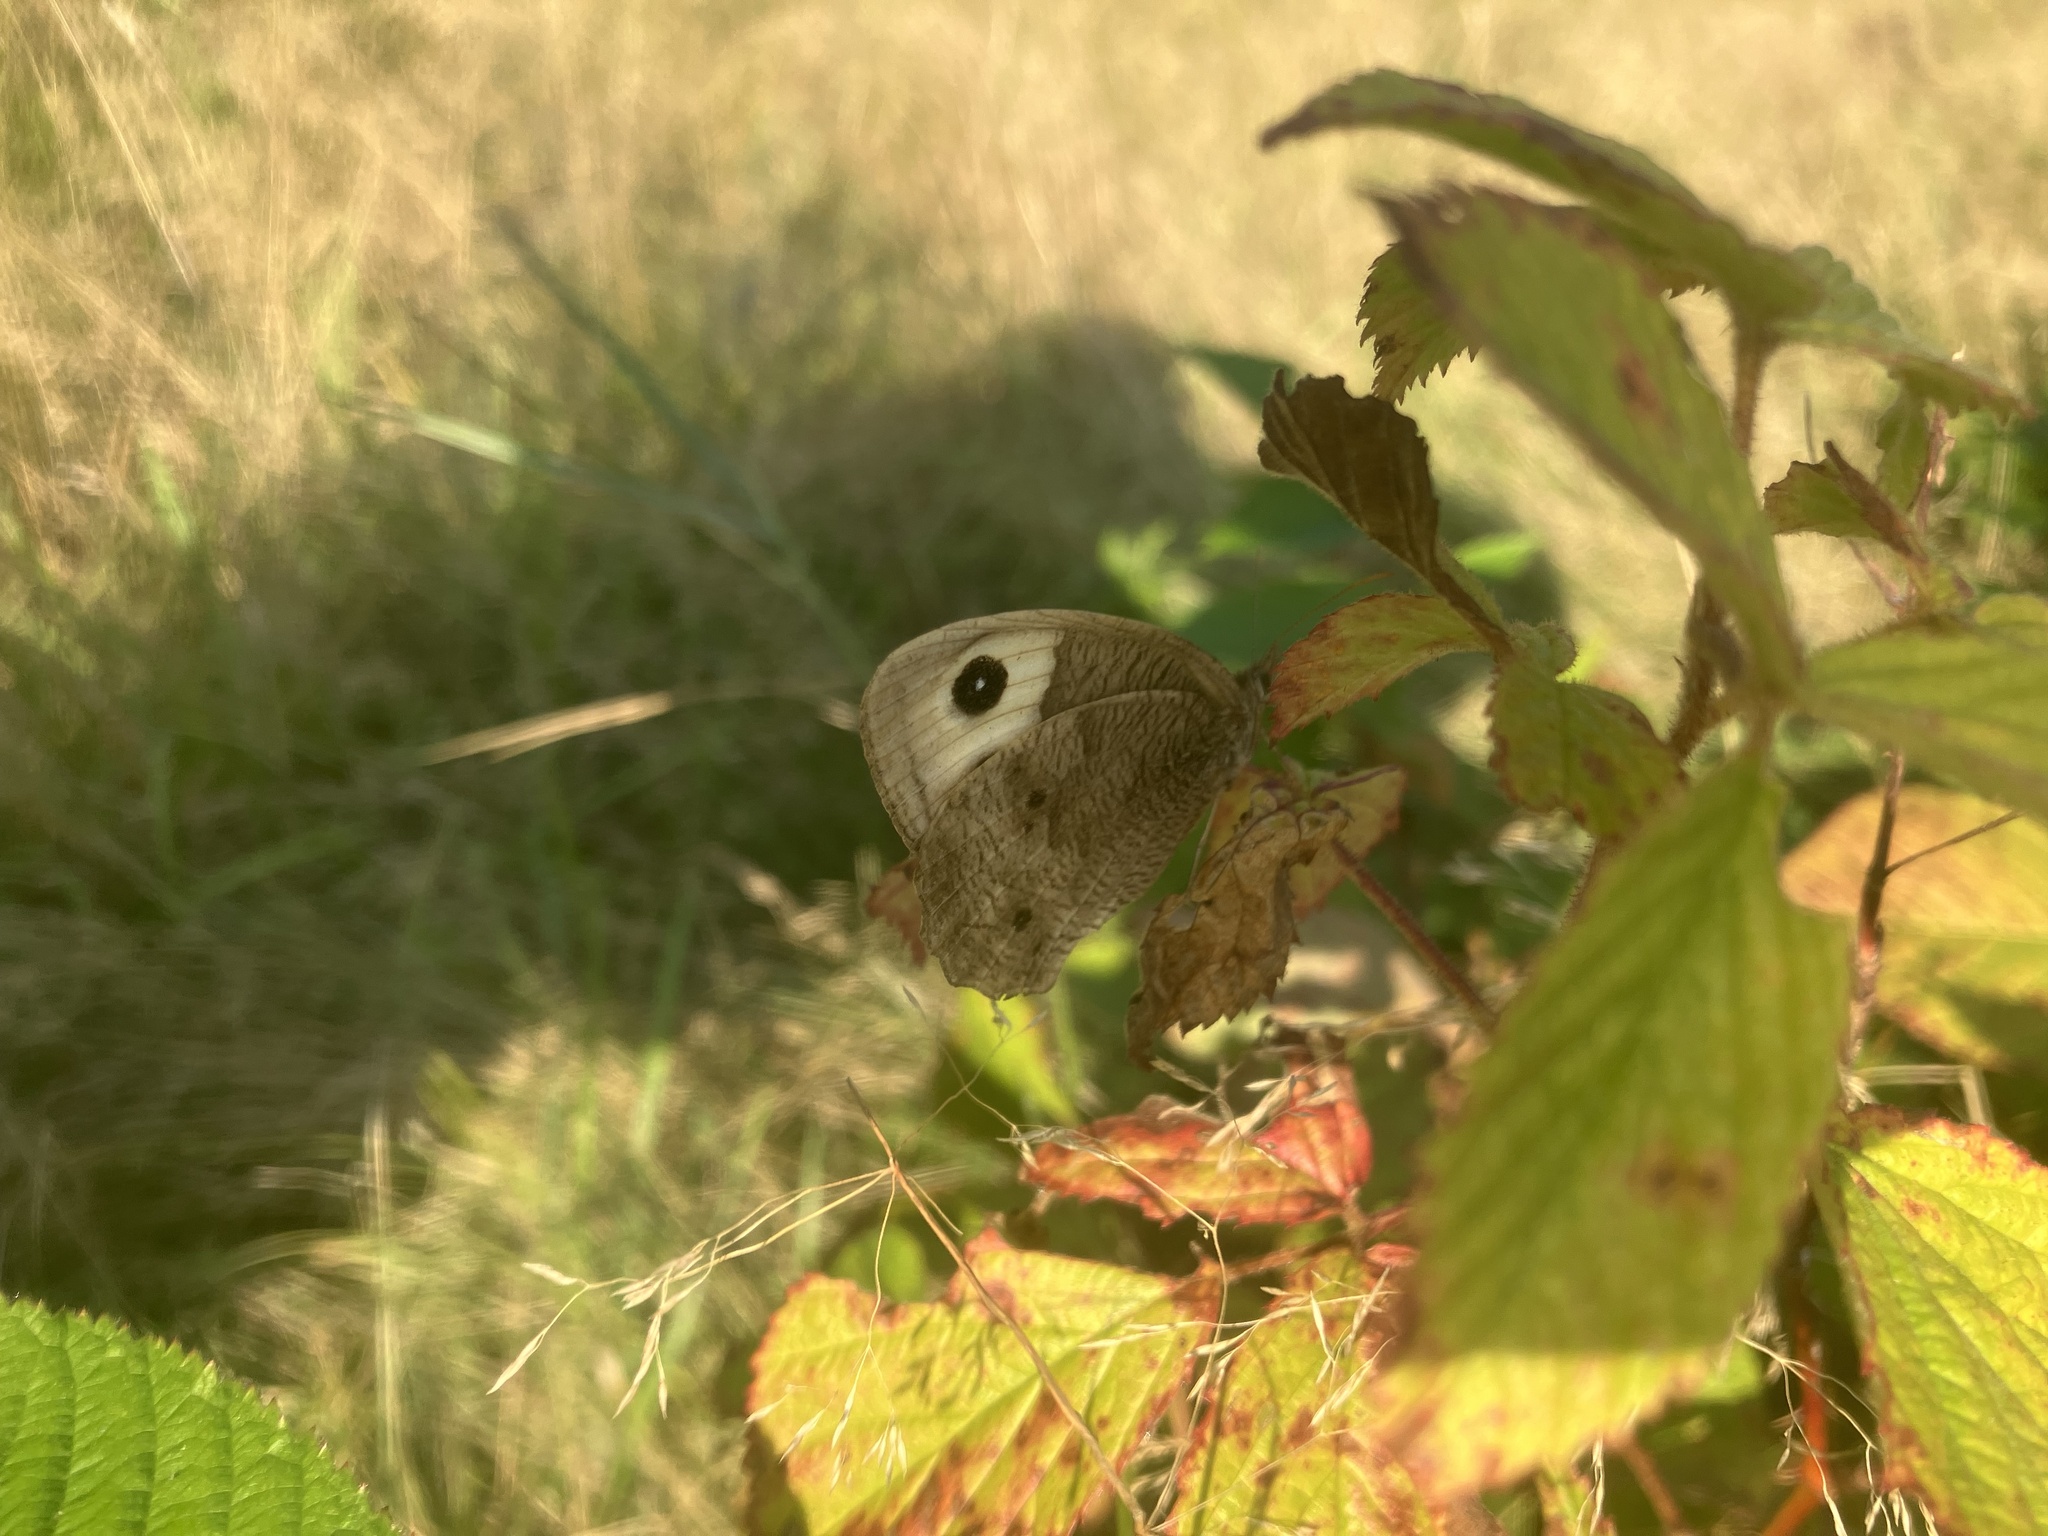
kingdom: Animalia
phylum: Arthropoda
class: Insecta
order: Lepidoptera
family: Nymphalidae
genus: Cercyonis
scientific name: Cercyonis pegala
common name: Common wood-nymph
